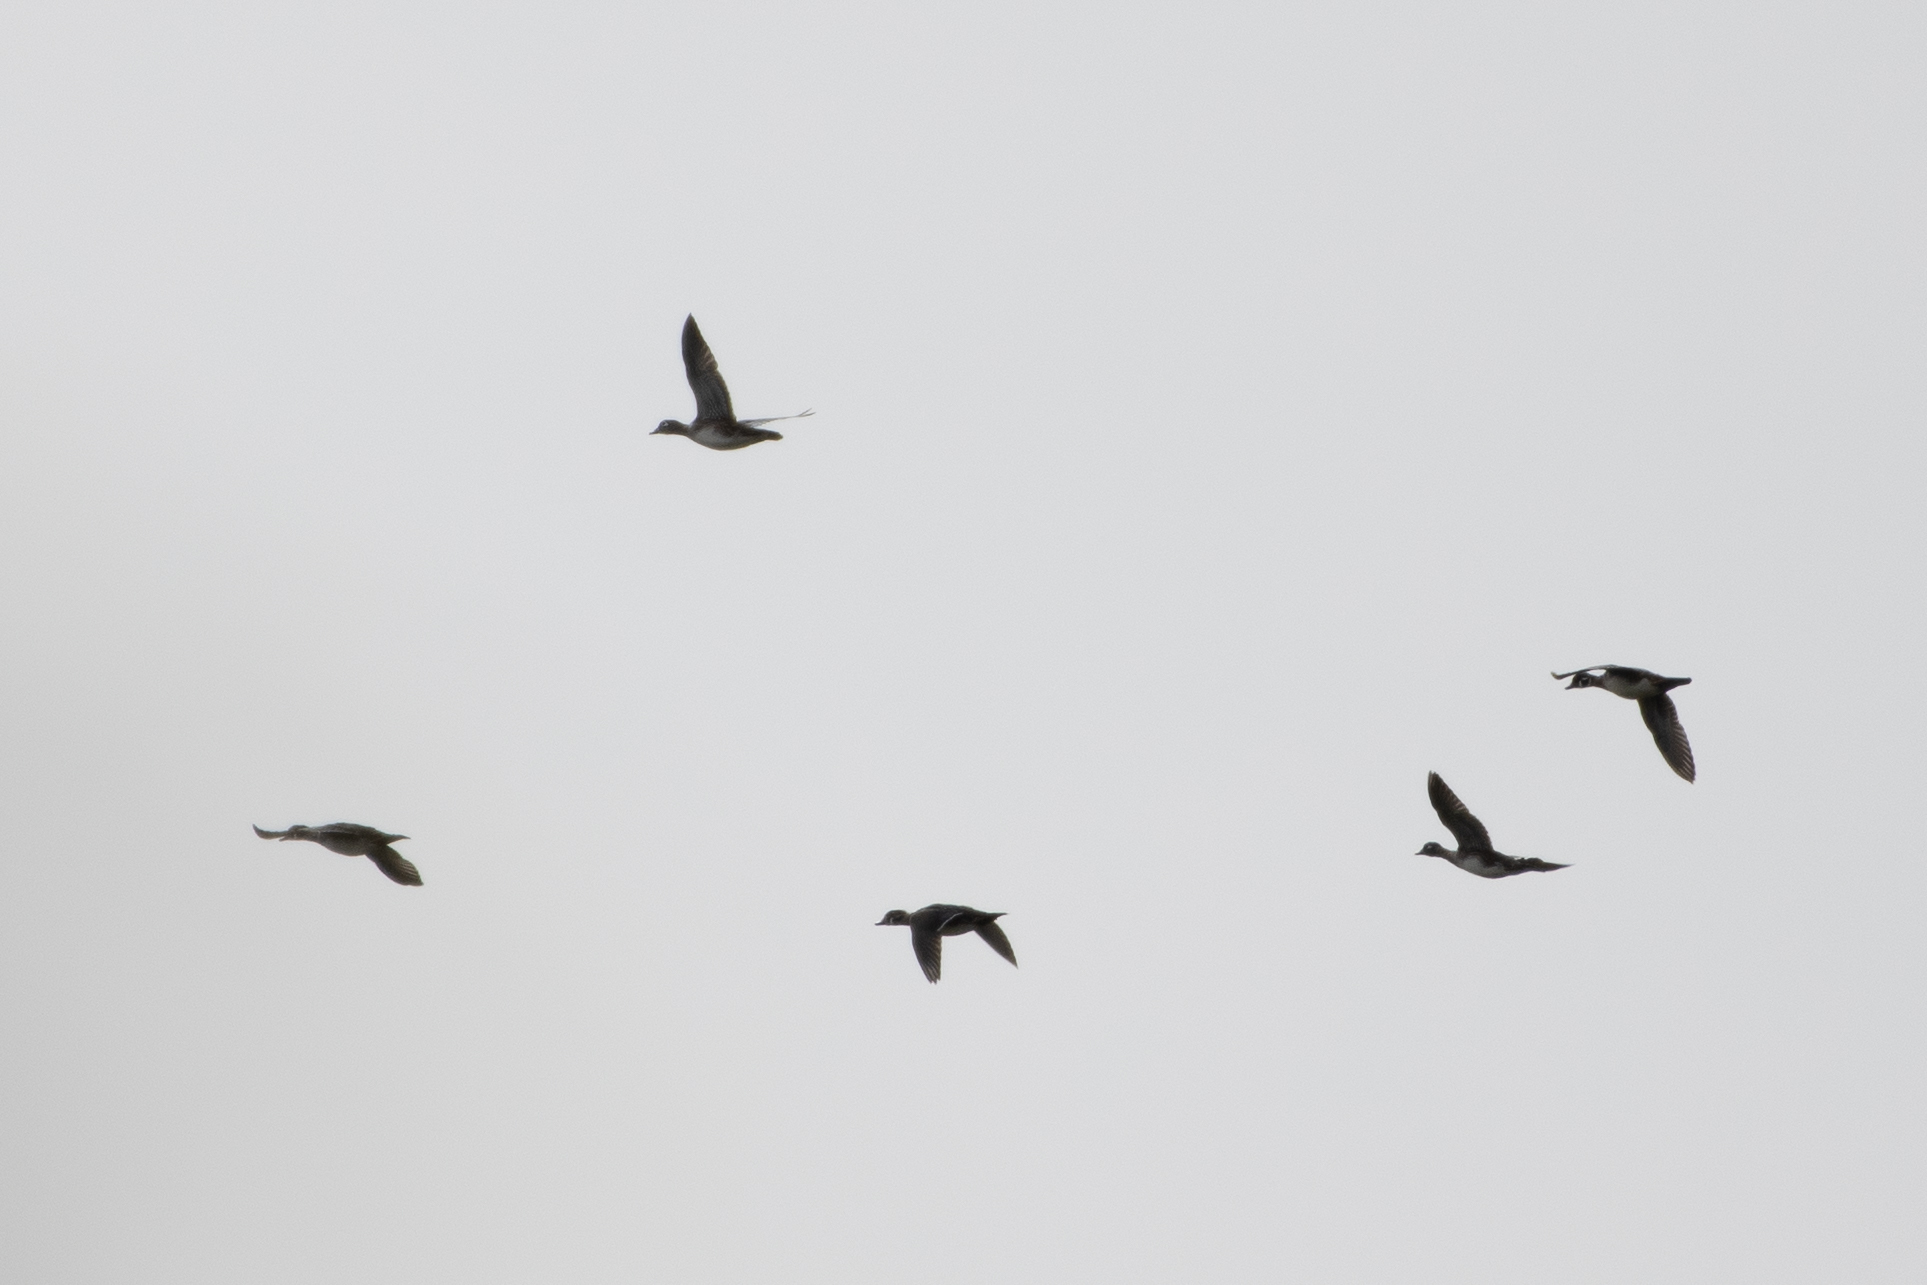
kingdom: Animalia
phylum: Chordata
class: Aves
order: Anseriformes
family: Anatidae
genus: Aix
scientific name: Aix sponsa
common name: Wood duck
